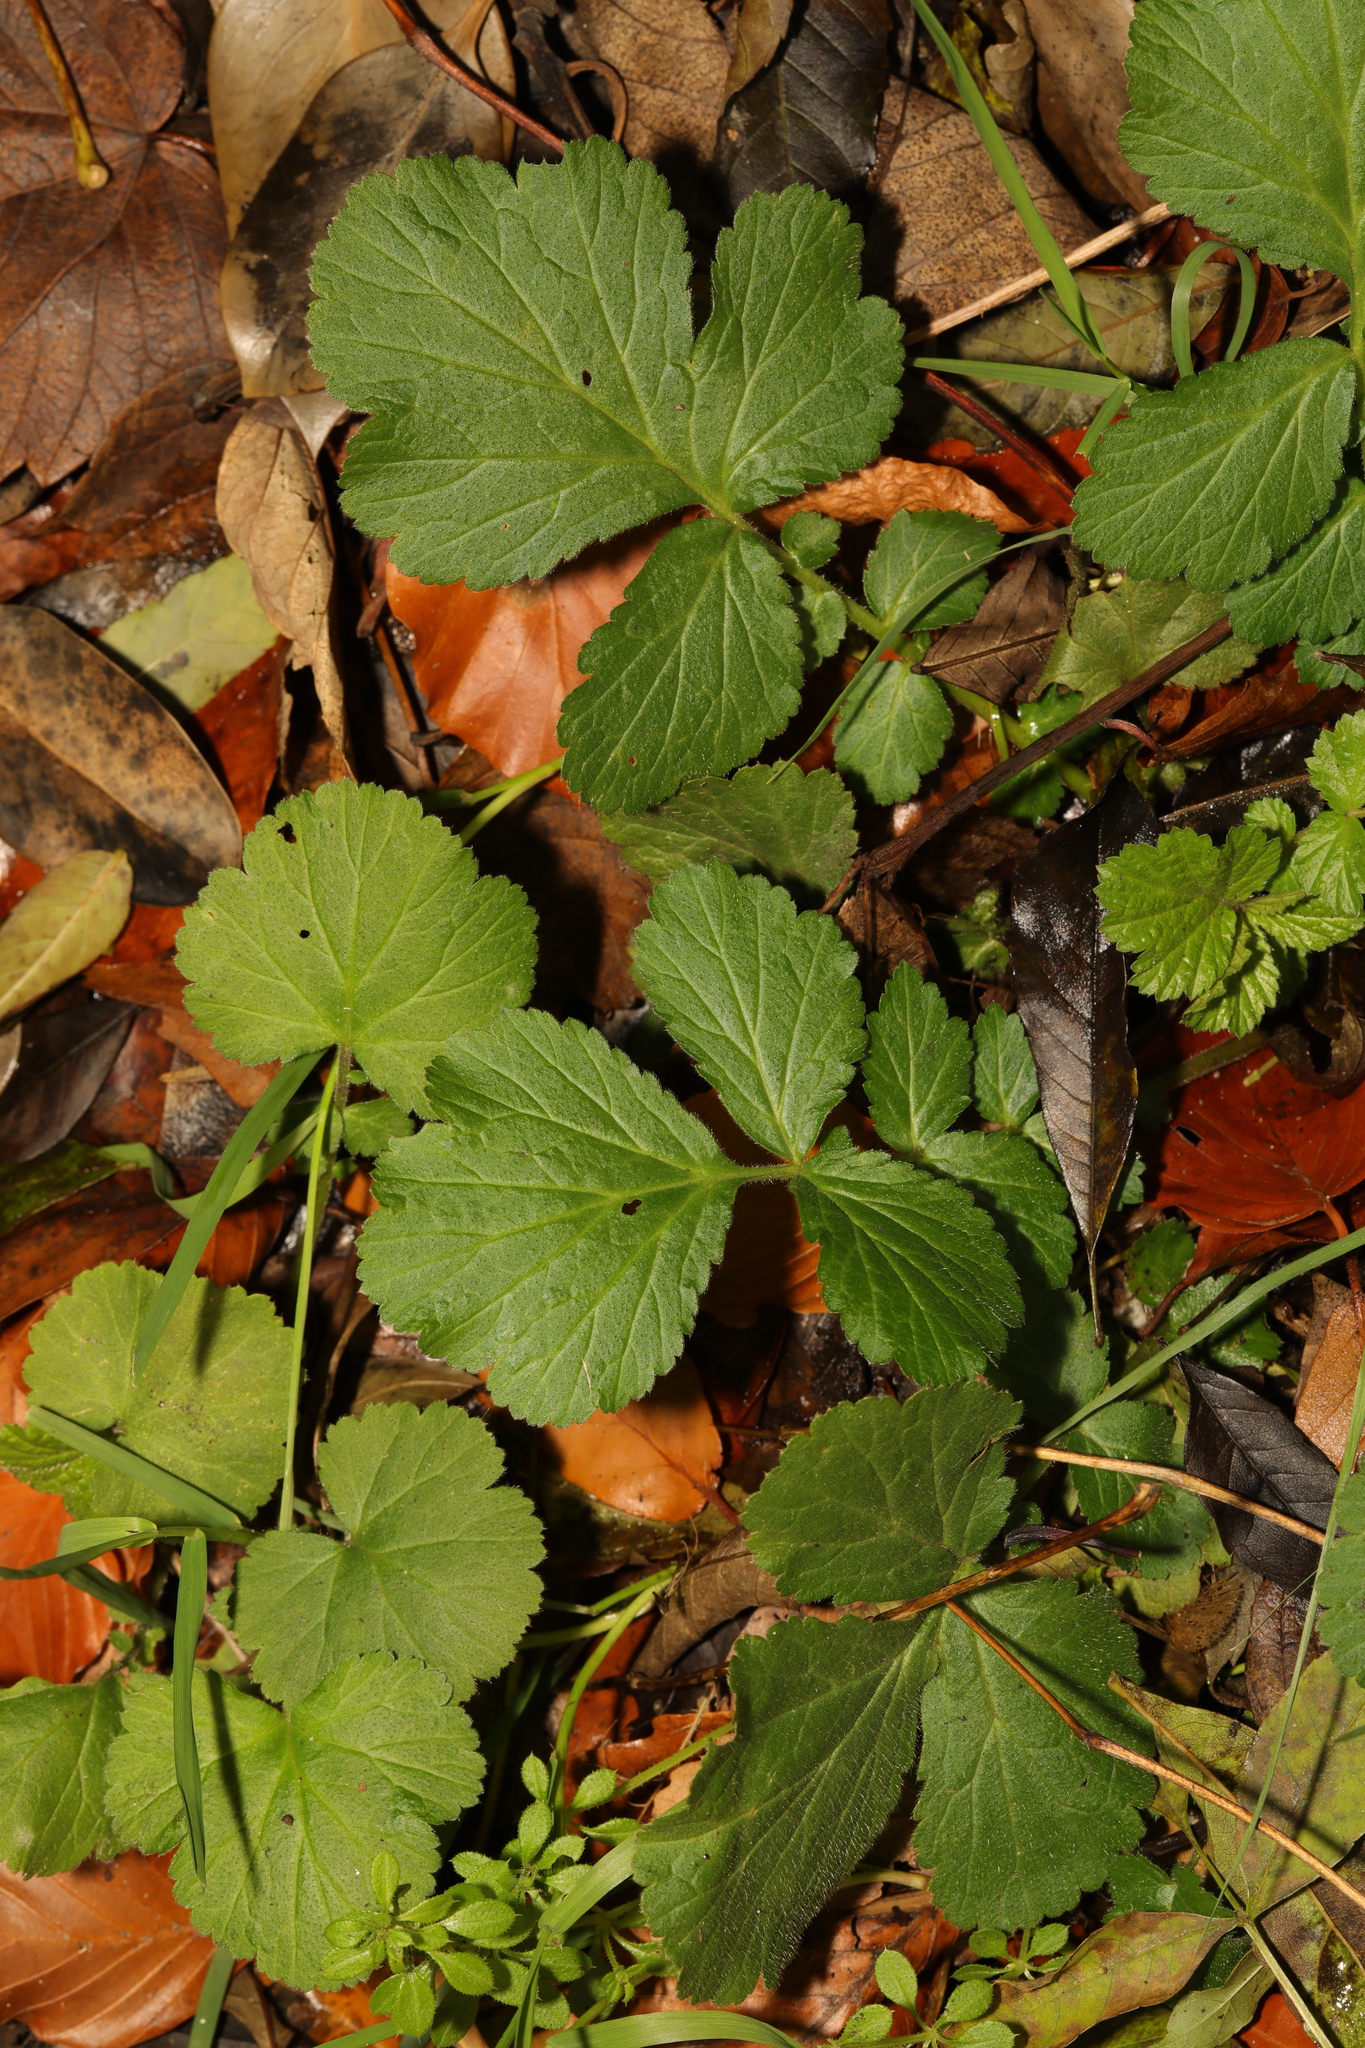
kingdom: Plantae
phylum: Tracheophyta
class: Magnoliopsida
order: Rosales
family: Rosaceae
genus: Geum
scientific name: Geum urbanum
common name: Wood avens
